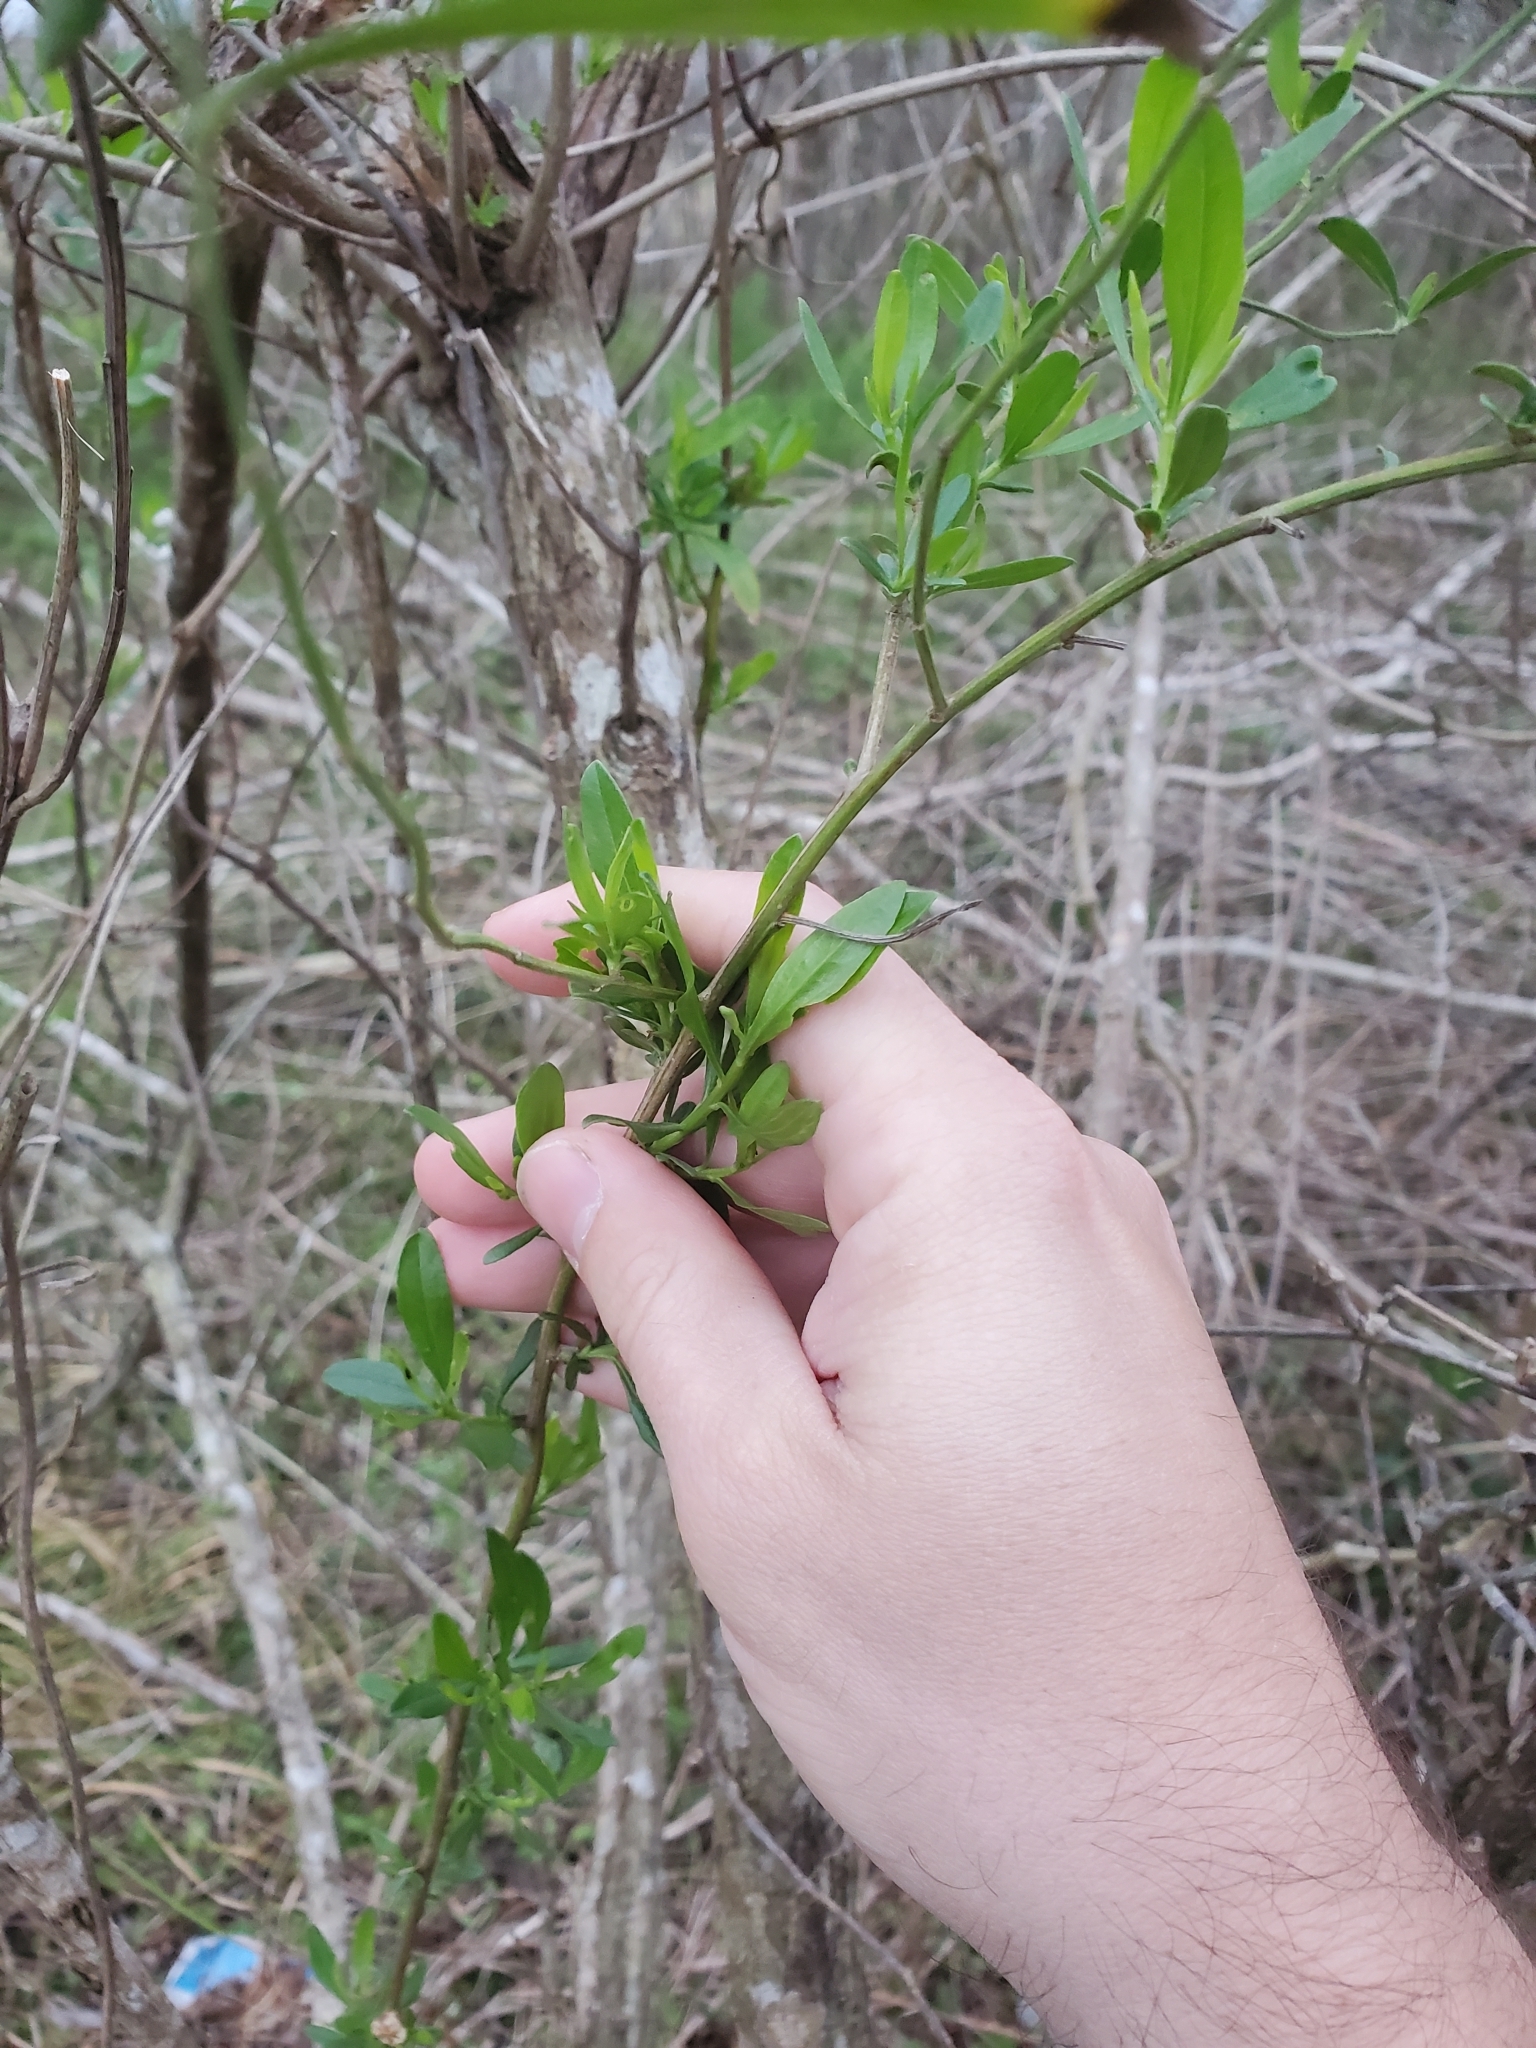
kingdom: Plantae
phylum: Tracheophyta
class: Magnoliopsida
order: Asterales
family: Asteraceae
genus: Baccharis
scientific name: Baccharis halimifolia
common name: Eastern baccharis
